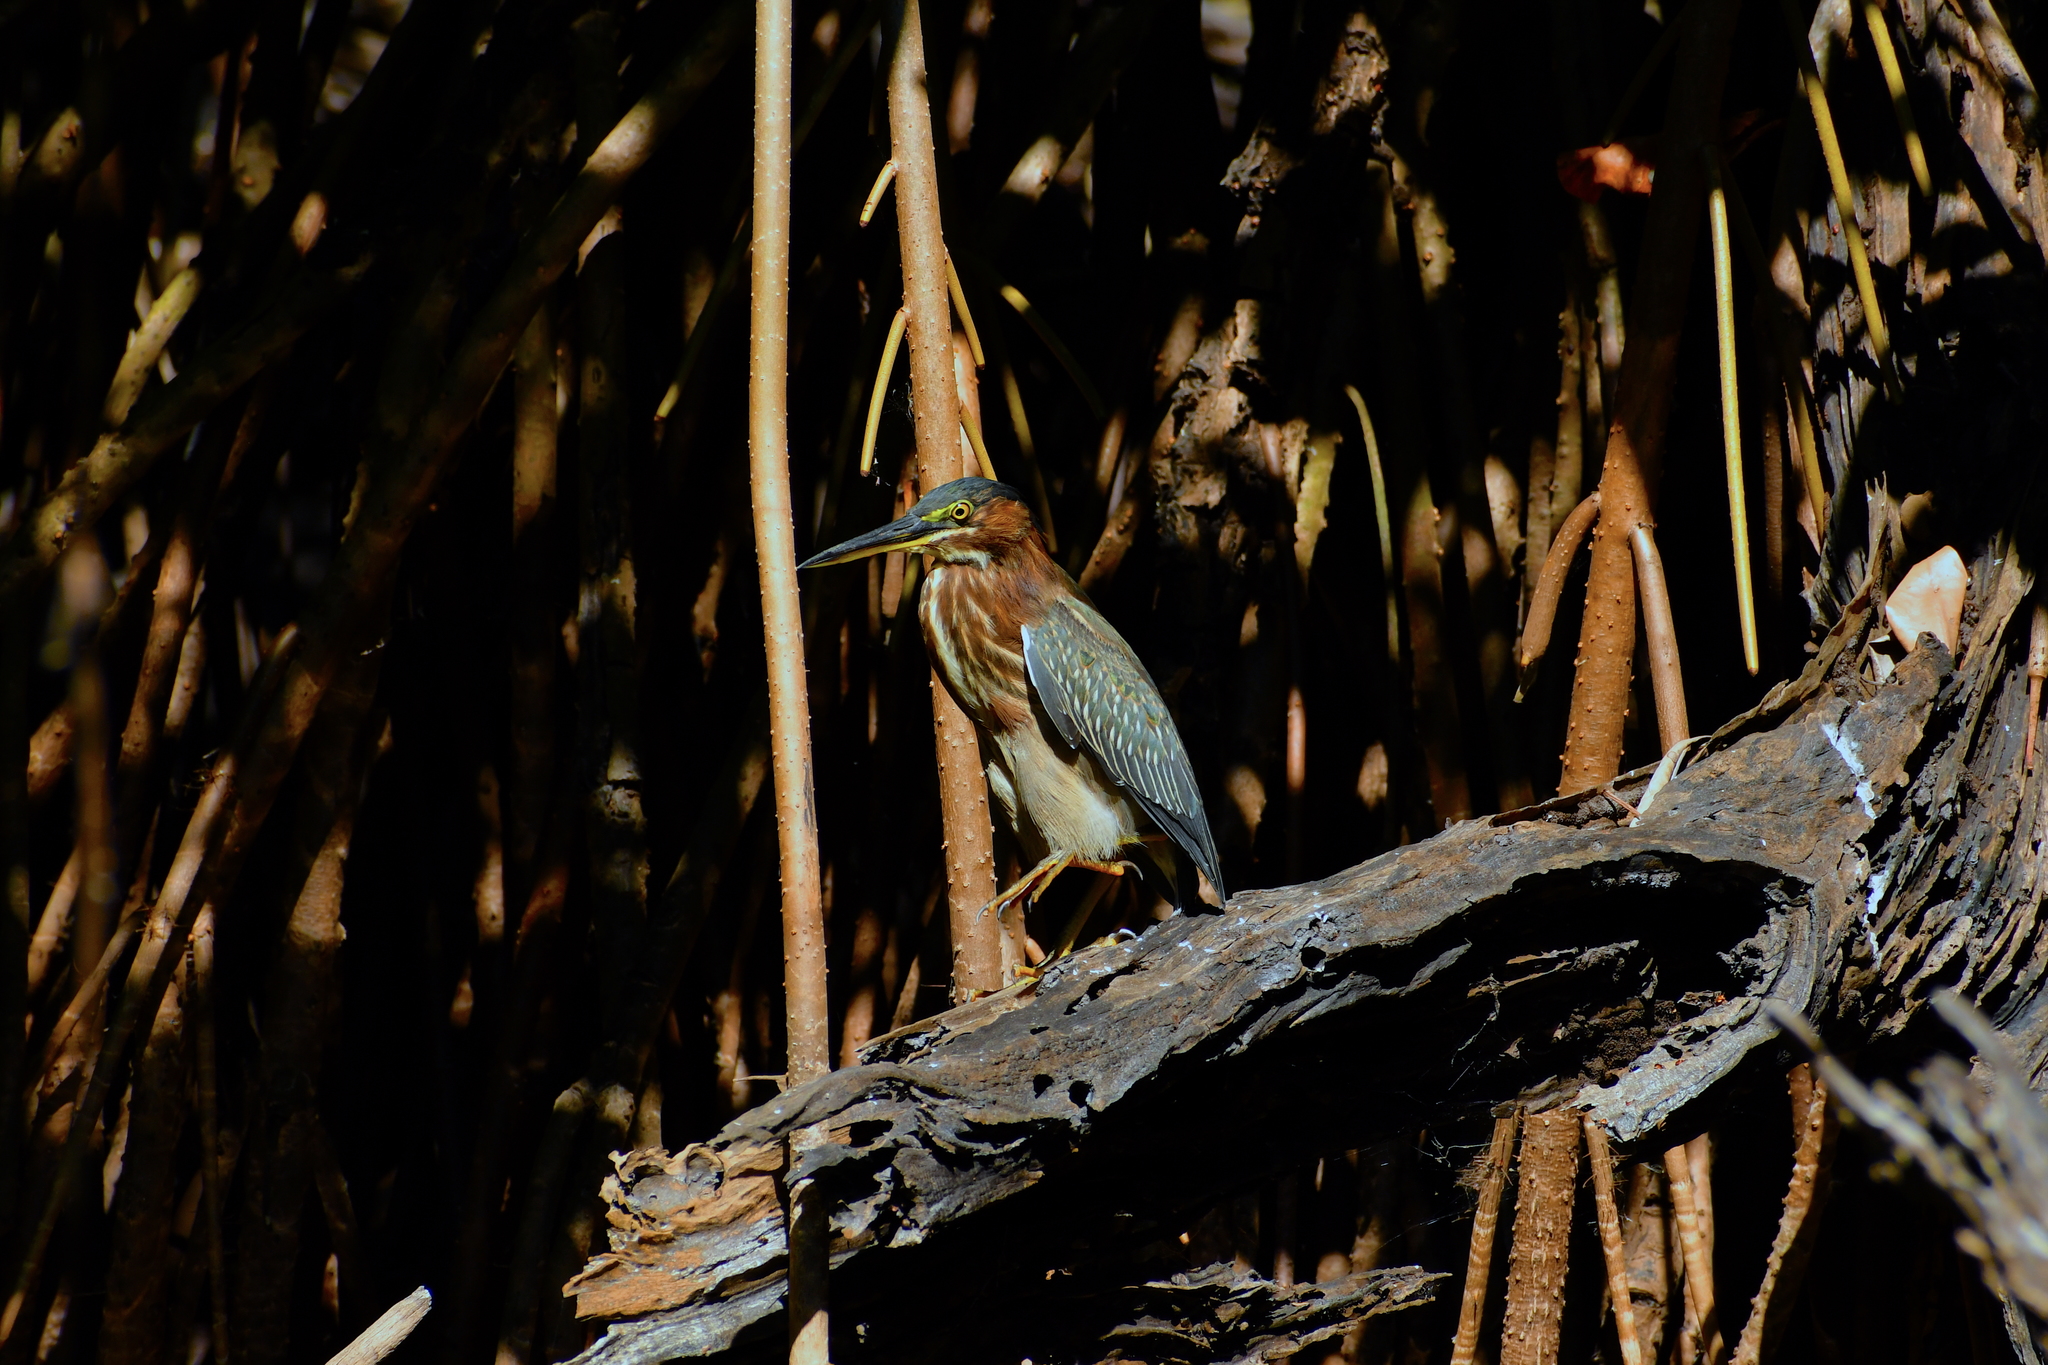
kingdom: Animalia
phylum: Chordata
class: Aves
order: Pelecaniformes
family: Ardeidae
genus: Butorides
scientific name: Butorides virescens
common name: Green heron
